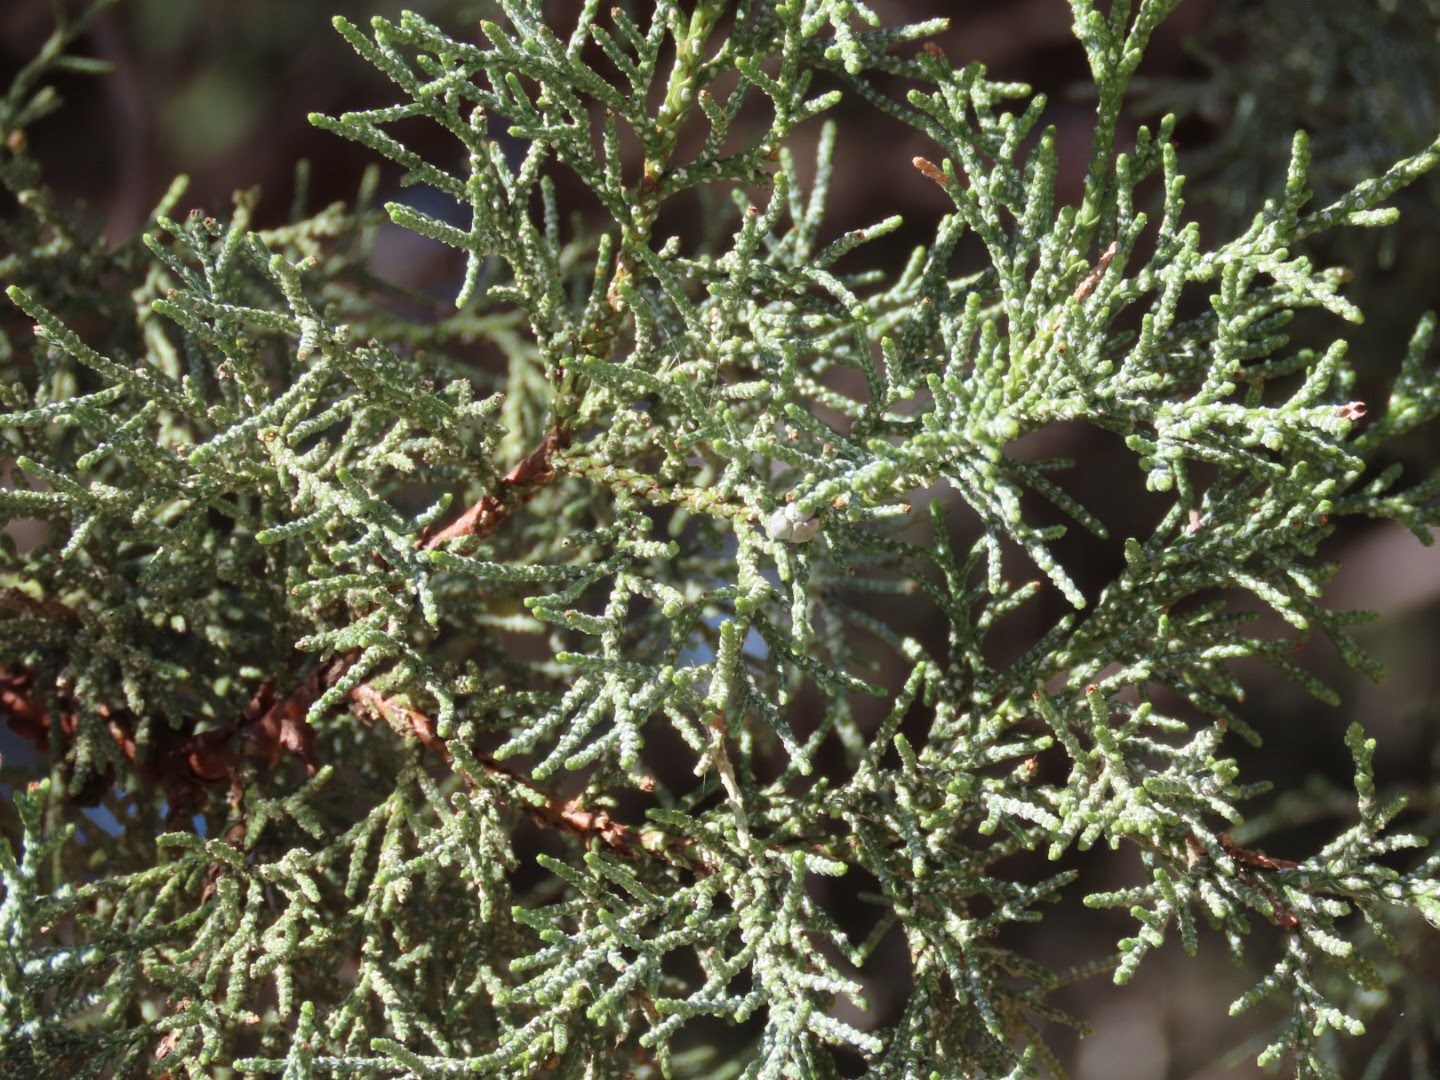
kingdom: Plantae
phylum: Tracheophyta
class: Pinopsida
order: Pinales
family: Cupressaceae
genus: Juniperus
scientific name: Juniperus deppeana
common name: Alligator juniper
